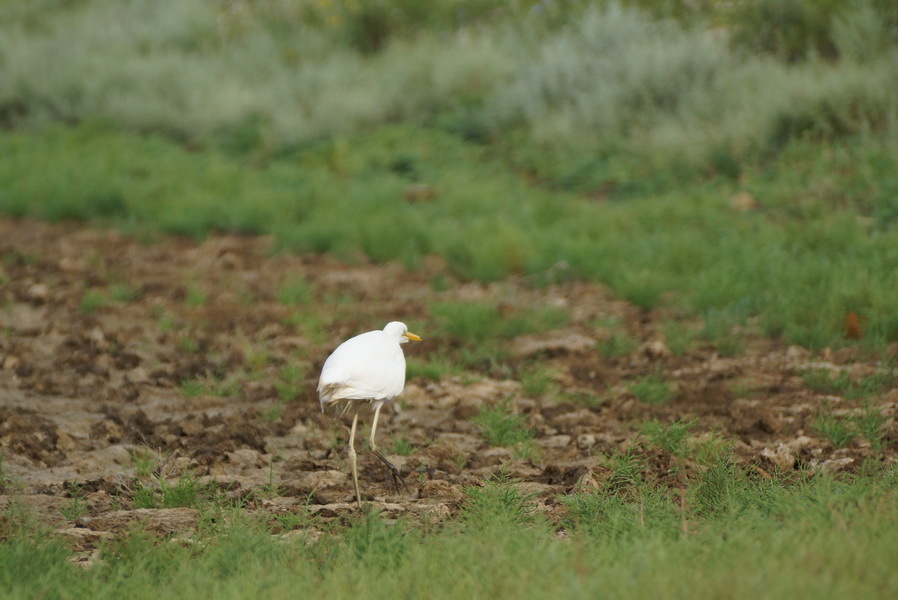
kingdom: Animalia
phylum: Chordata
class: Aves
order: Pelecaniformes
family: Ardeidae
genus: Ardea
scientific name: Ardea alba
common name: Great egret
